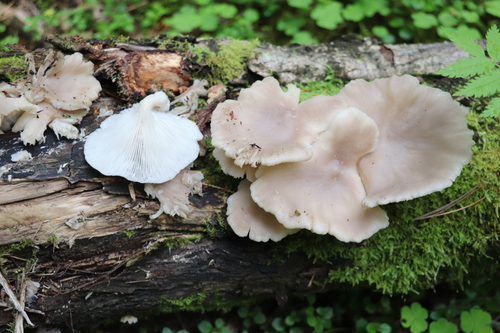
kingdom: Fungi
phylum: Basidiomycota
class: Agaricomycetes
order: Agaricales
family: Pleurotaceae
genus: Pleurotus
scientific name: Pleurotus pulmonarius
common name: Pale oyster
